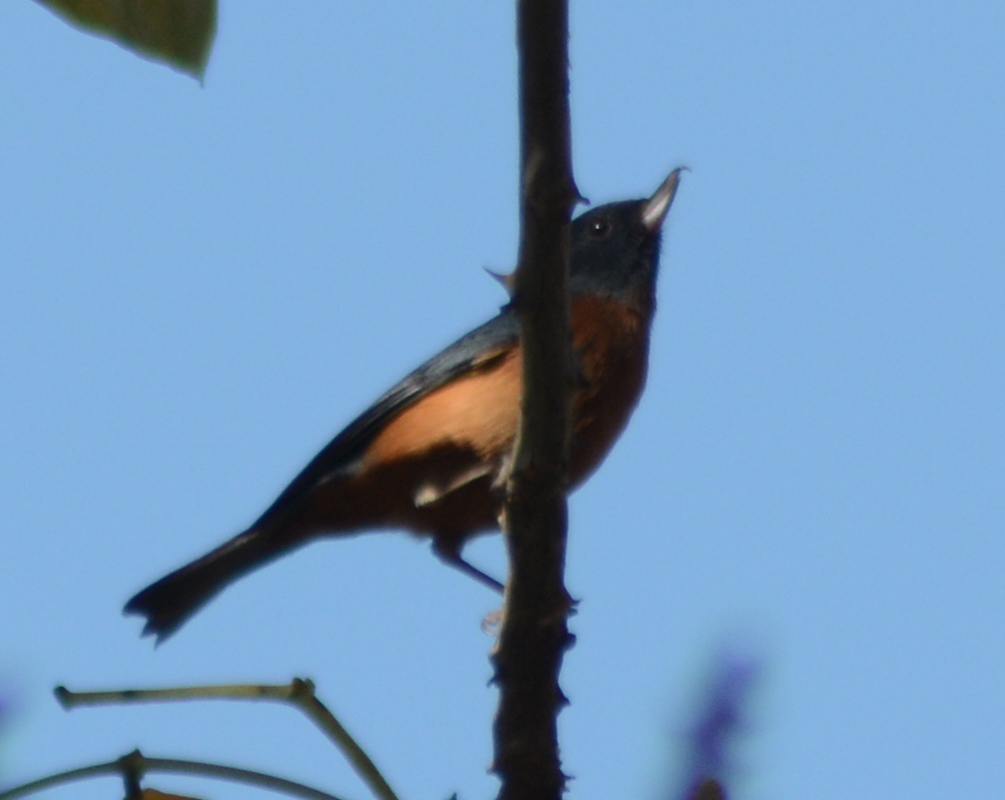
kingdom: Animalia
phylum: Chordata
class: Aves
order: Passeriformes
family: Thraupidae
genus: Diglossa
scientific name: Diglossa baritula
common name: Cinnamon-bellied flowerpiercer
